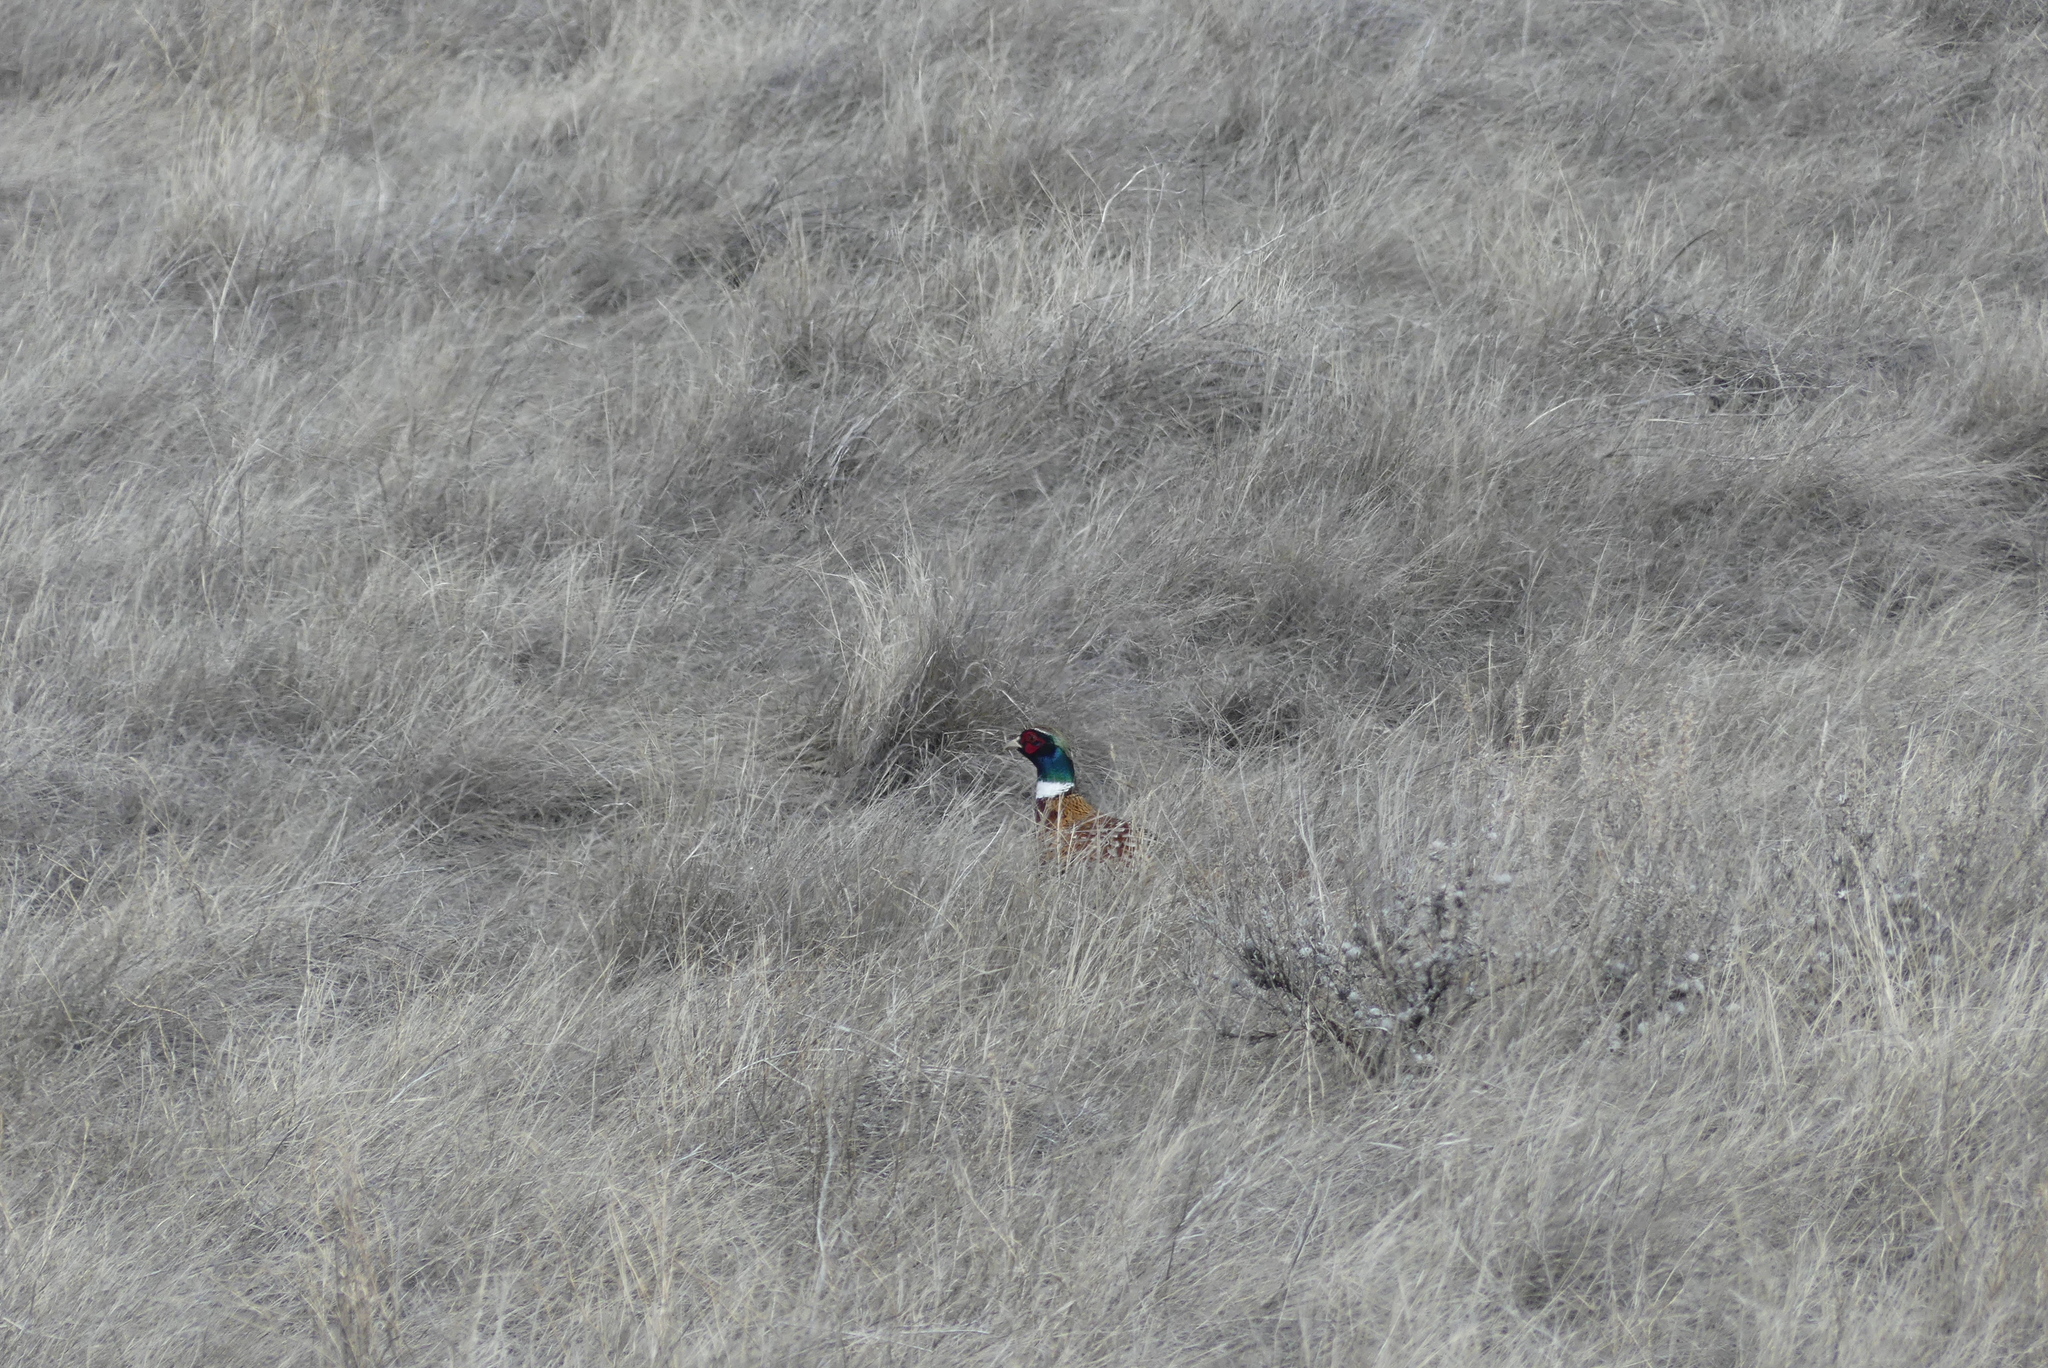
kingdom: Animalia
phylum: Chordata
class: Aves
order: Galliformes
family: Phasianidae
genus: Phasianus
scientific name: Phasianus colchicus
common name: Common pheasant
